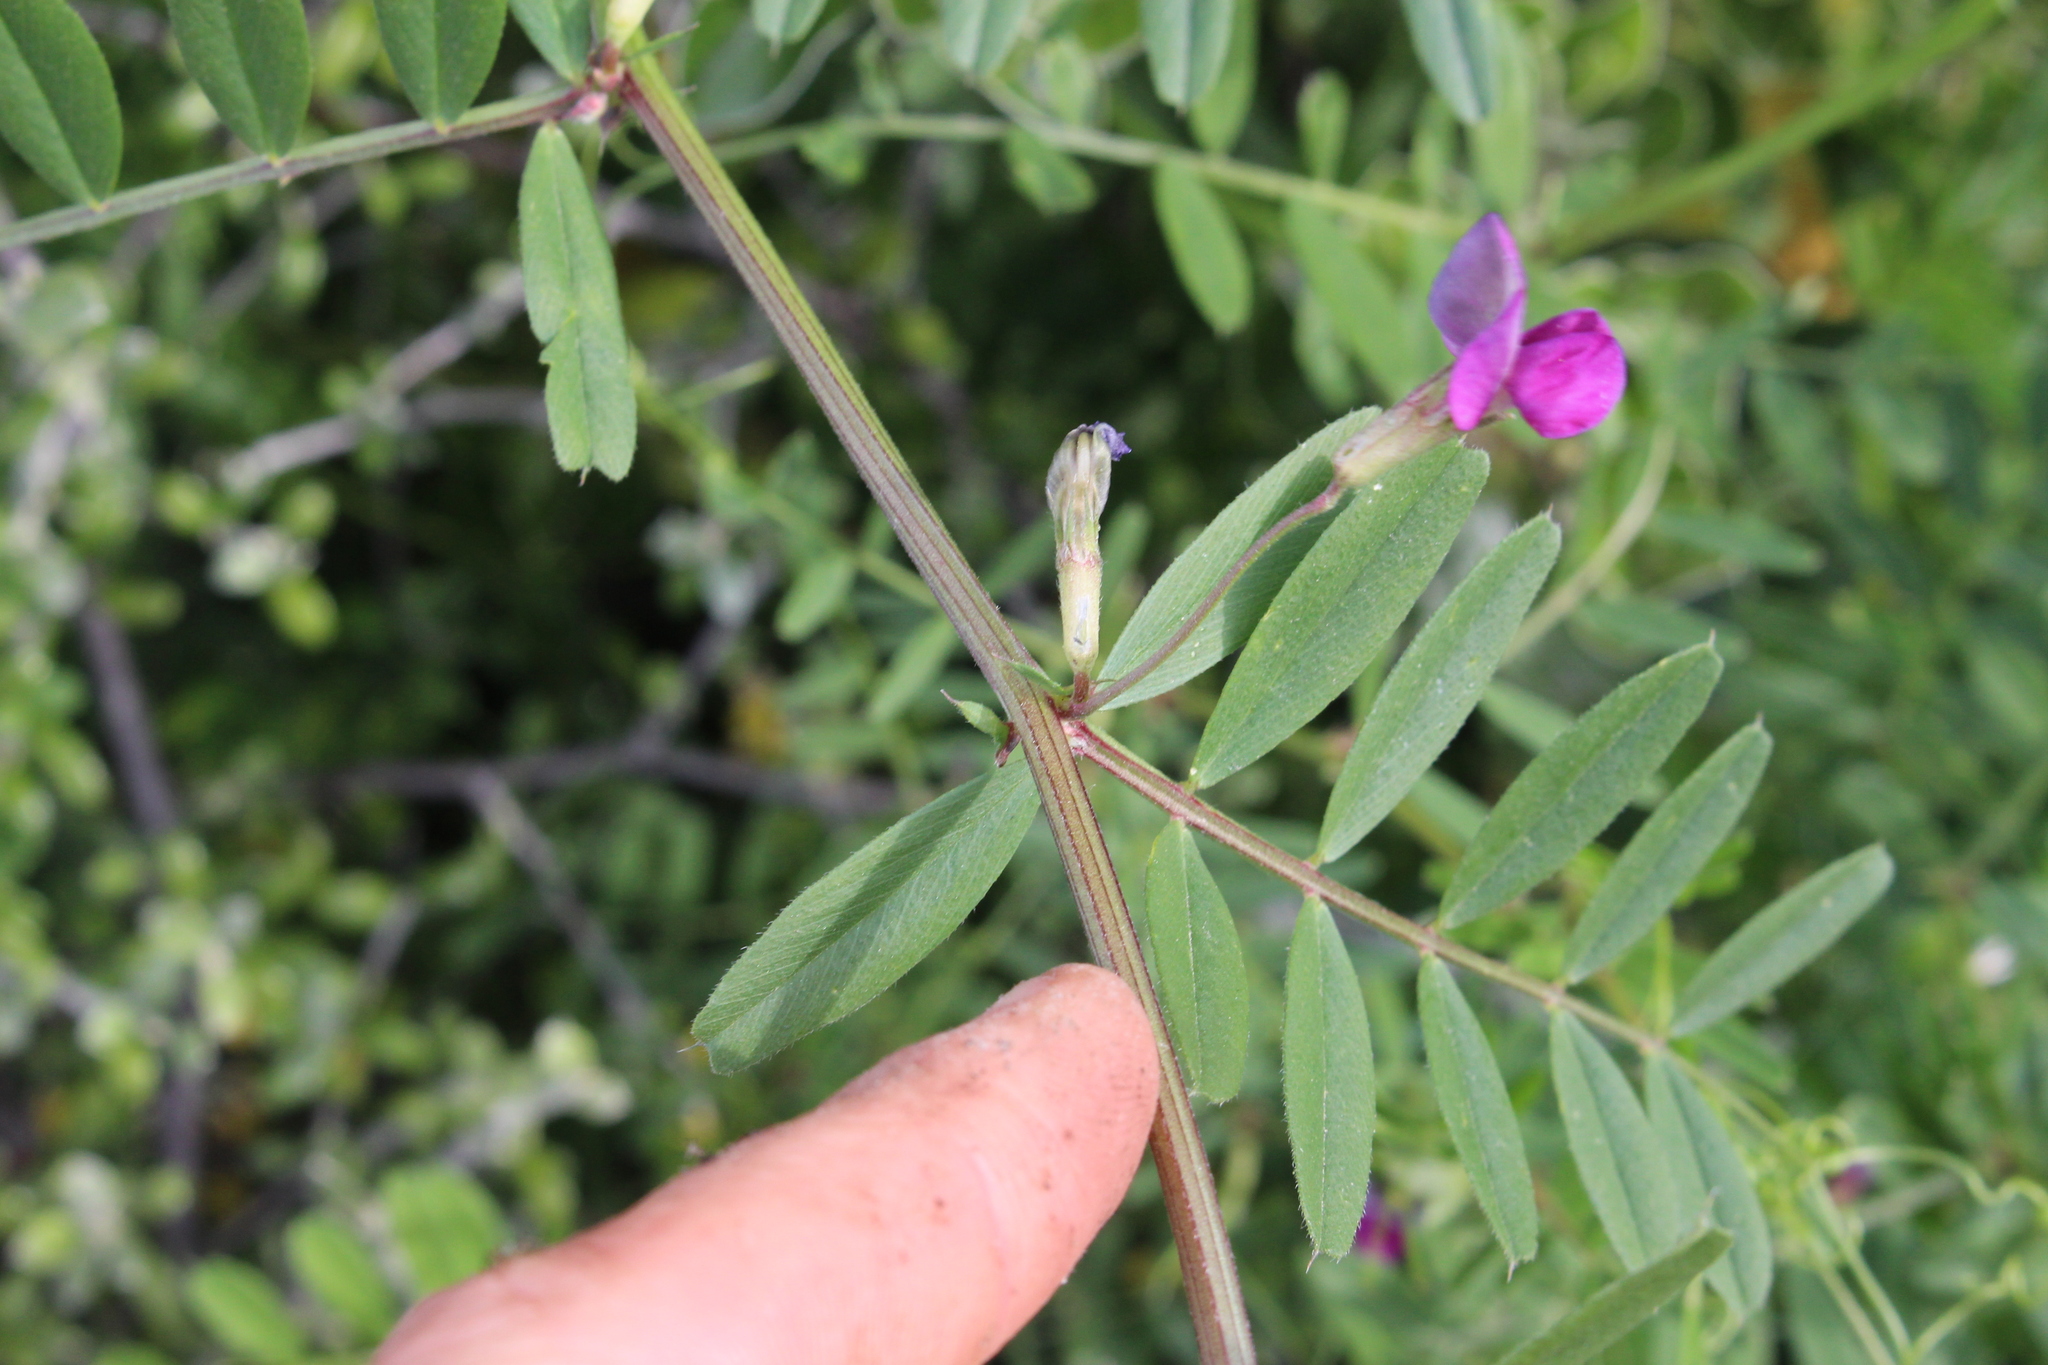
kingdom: Plantae
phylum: Tracheophyta
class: Magnoliopsida
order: Fabales
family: Fabaceae
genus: Vicia
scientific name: Vicia sativa
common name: Garden vetch
